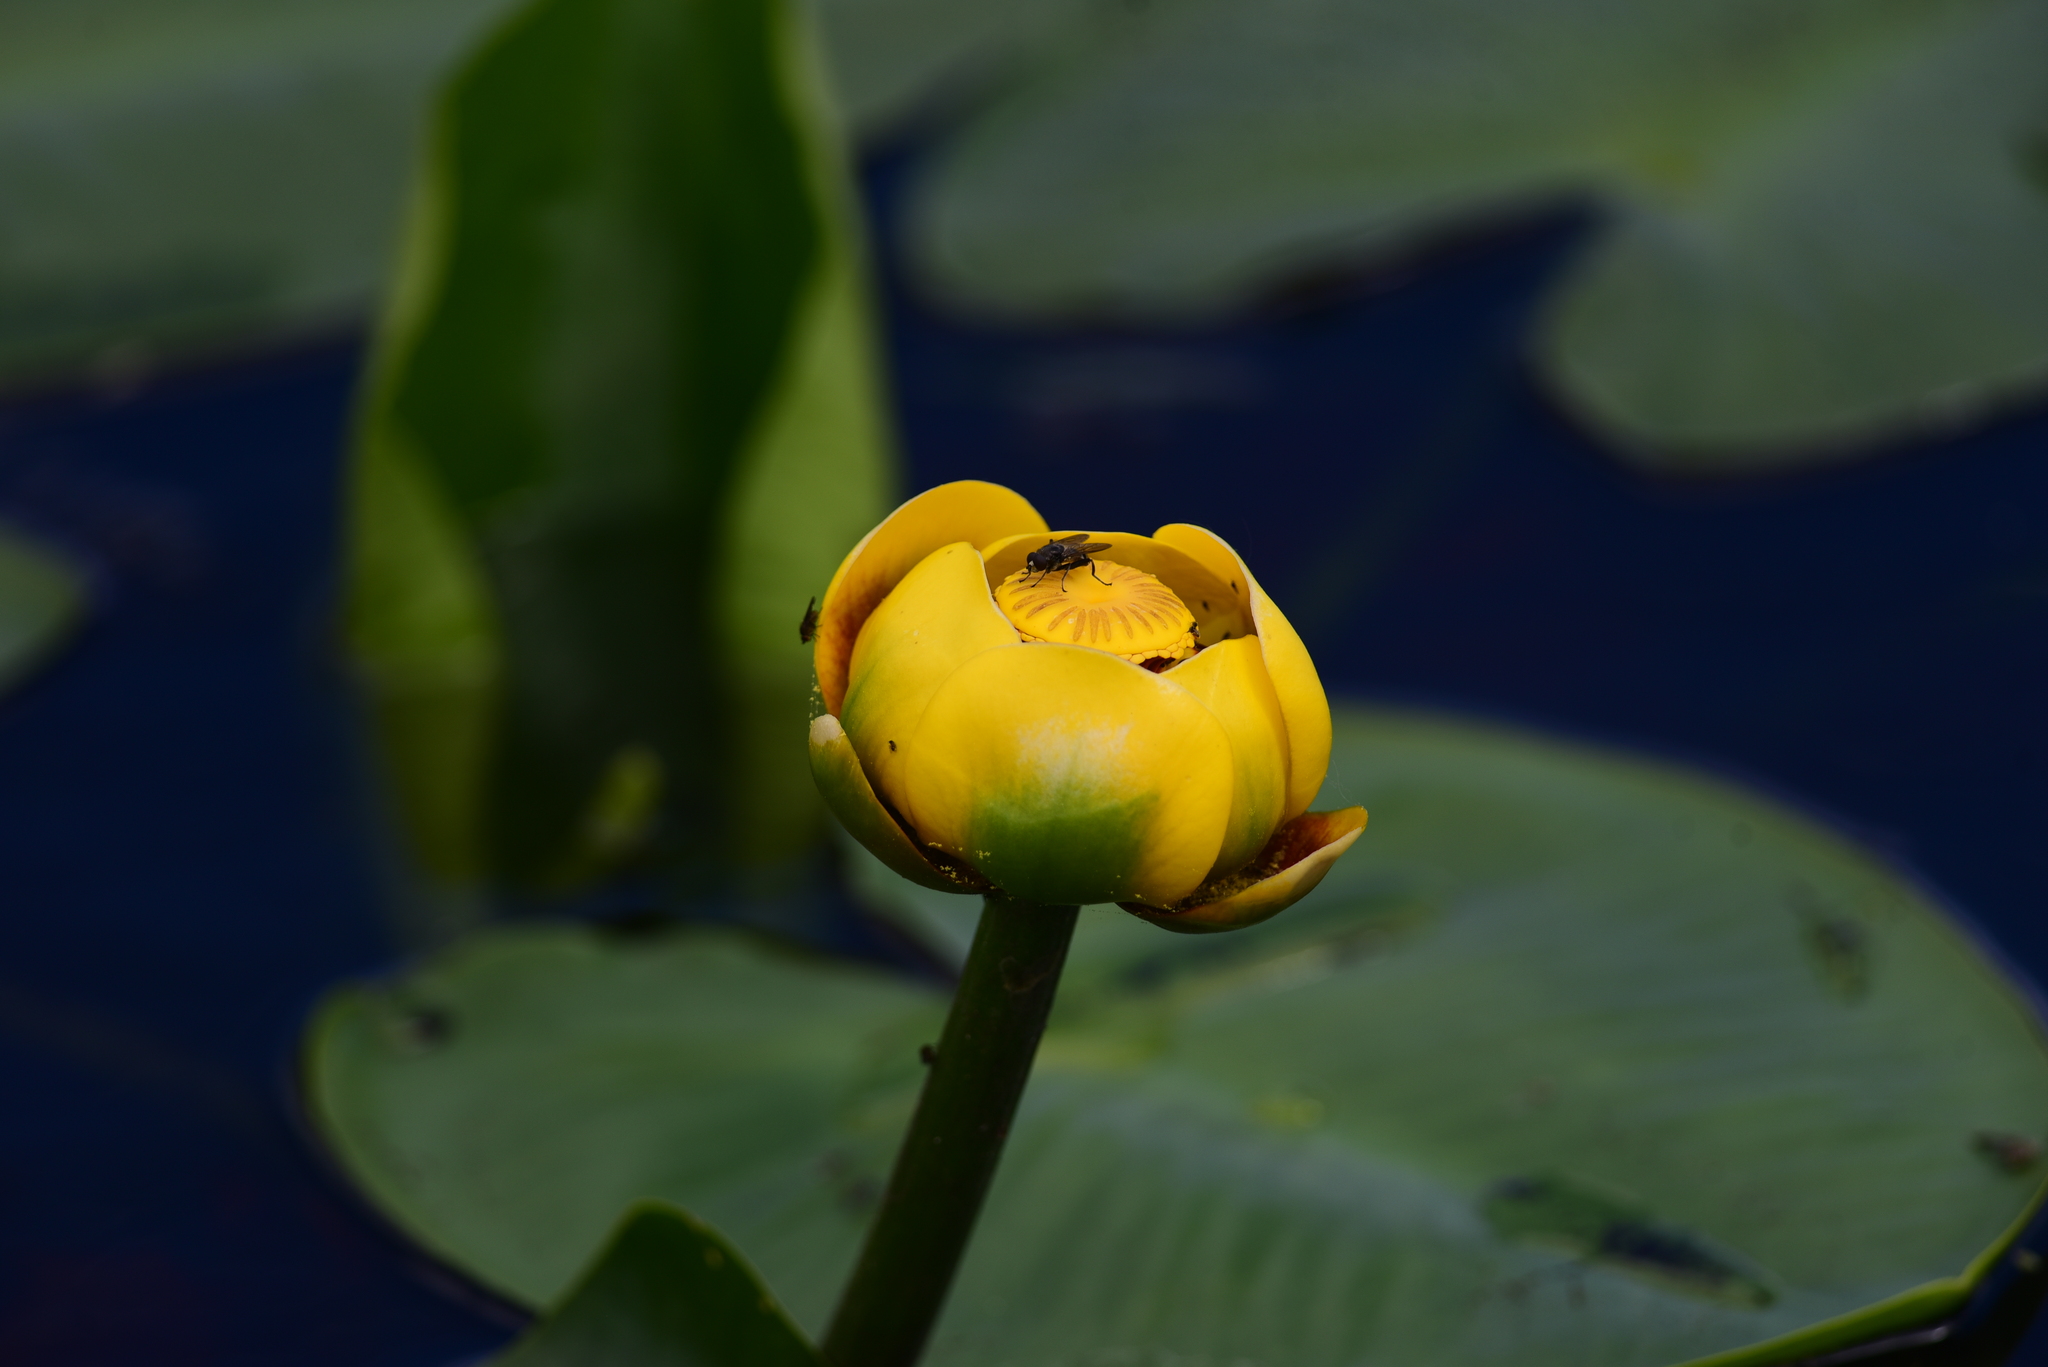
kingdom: Plantae
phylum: Tracheophyta
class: Magnoliopsida
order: Nymphaeales
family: Nymphaeaceae
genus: Nuphar
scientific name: Nuphar polysepala
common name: Rocky mountain cow-lily
